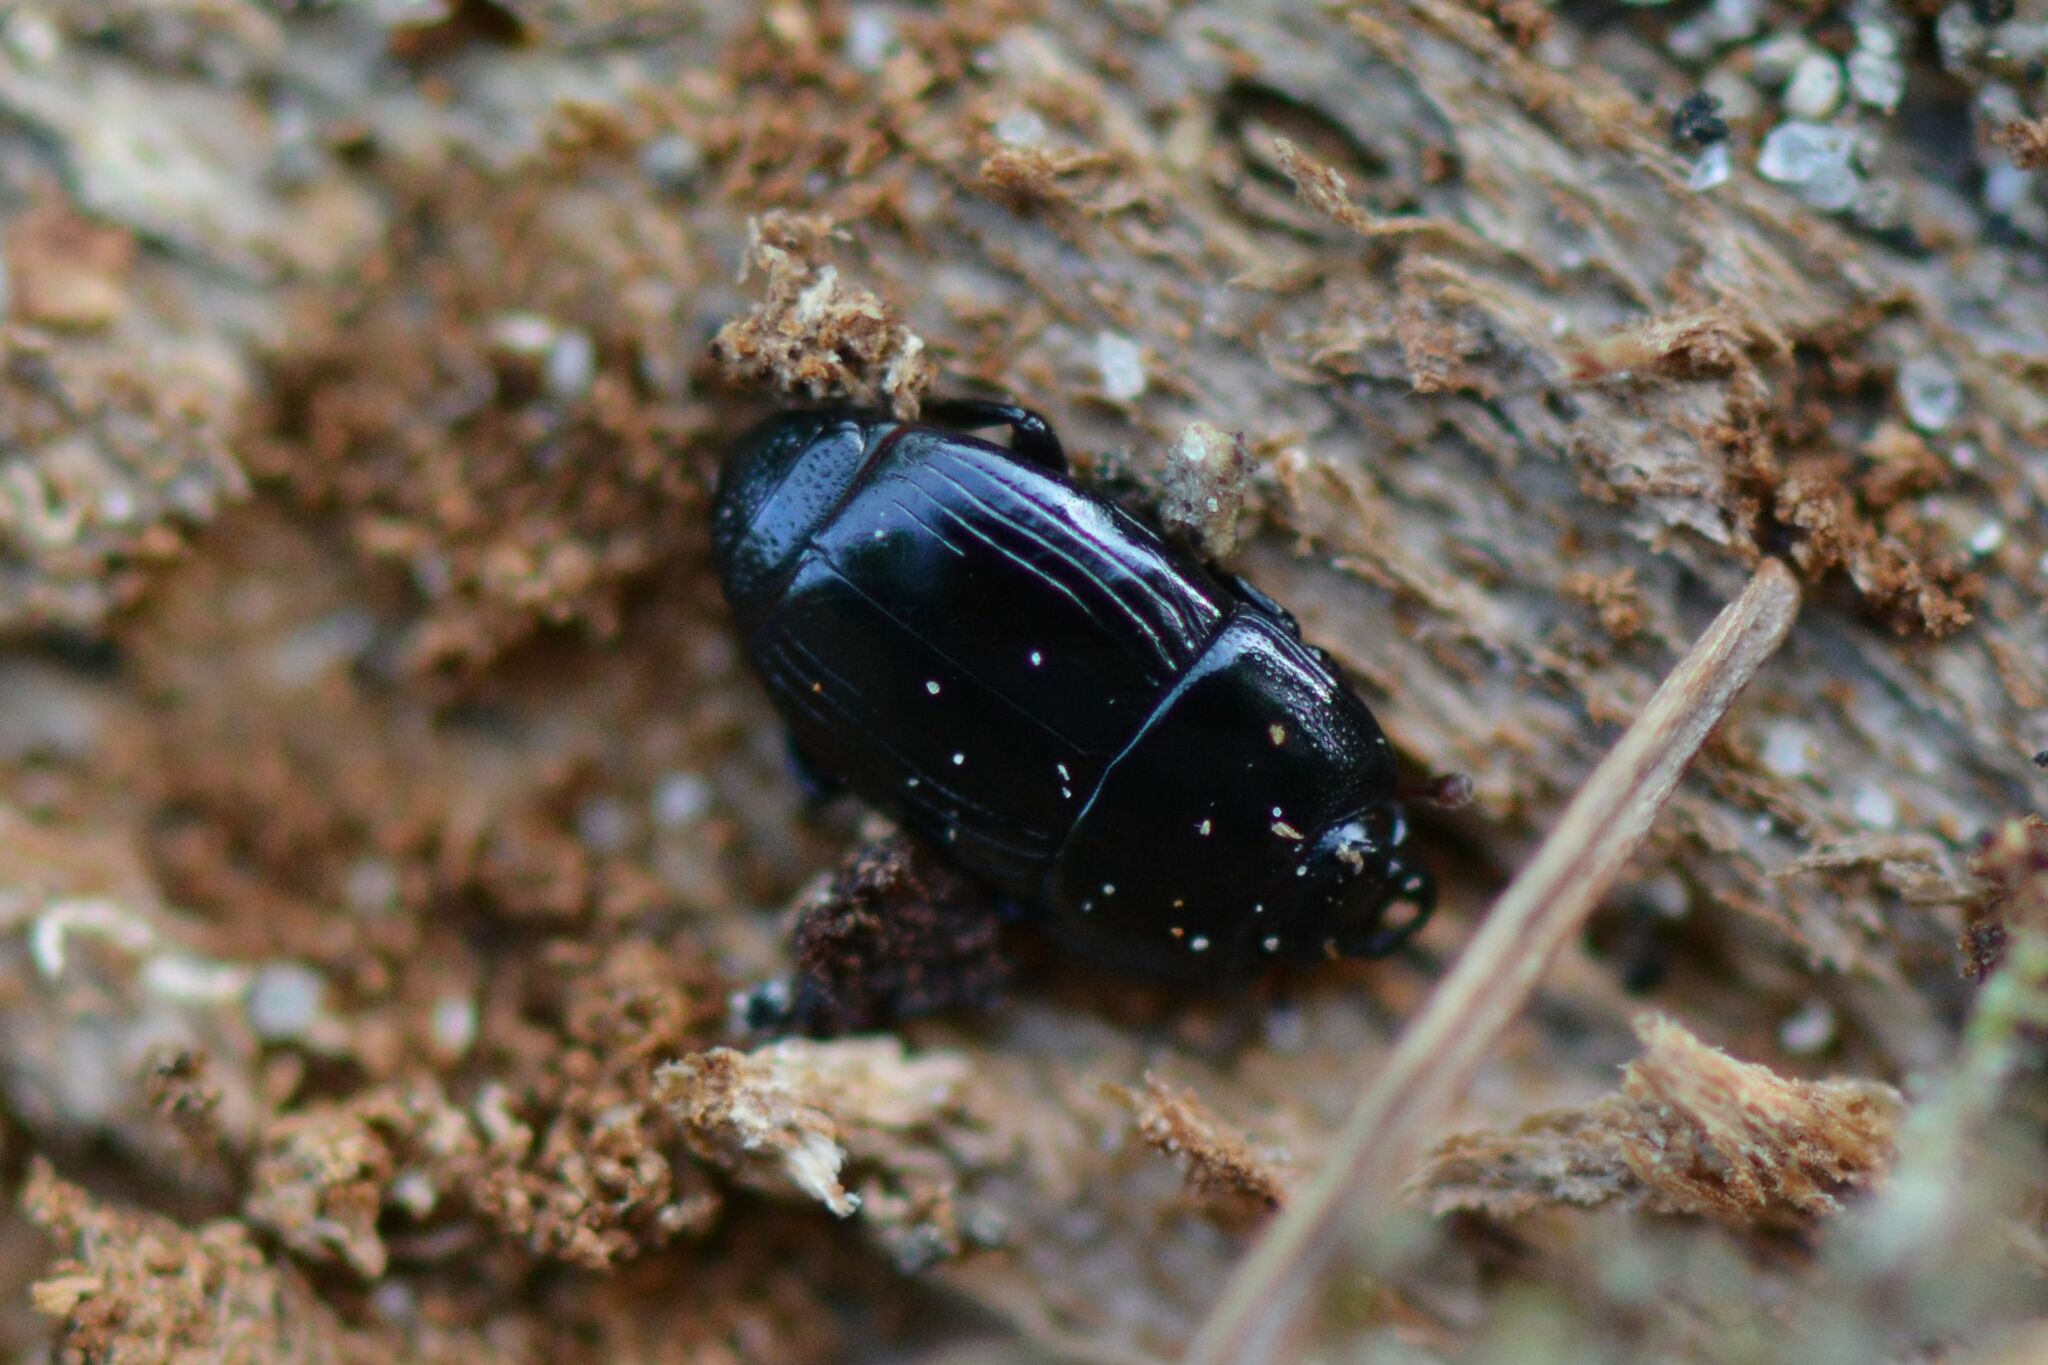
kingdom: Animalia
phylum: Arthropoda
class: Insecta
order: Coleoptera
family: Histeridae
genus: Platysoma
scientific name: Platysoma compressum
